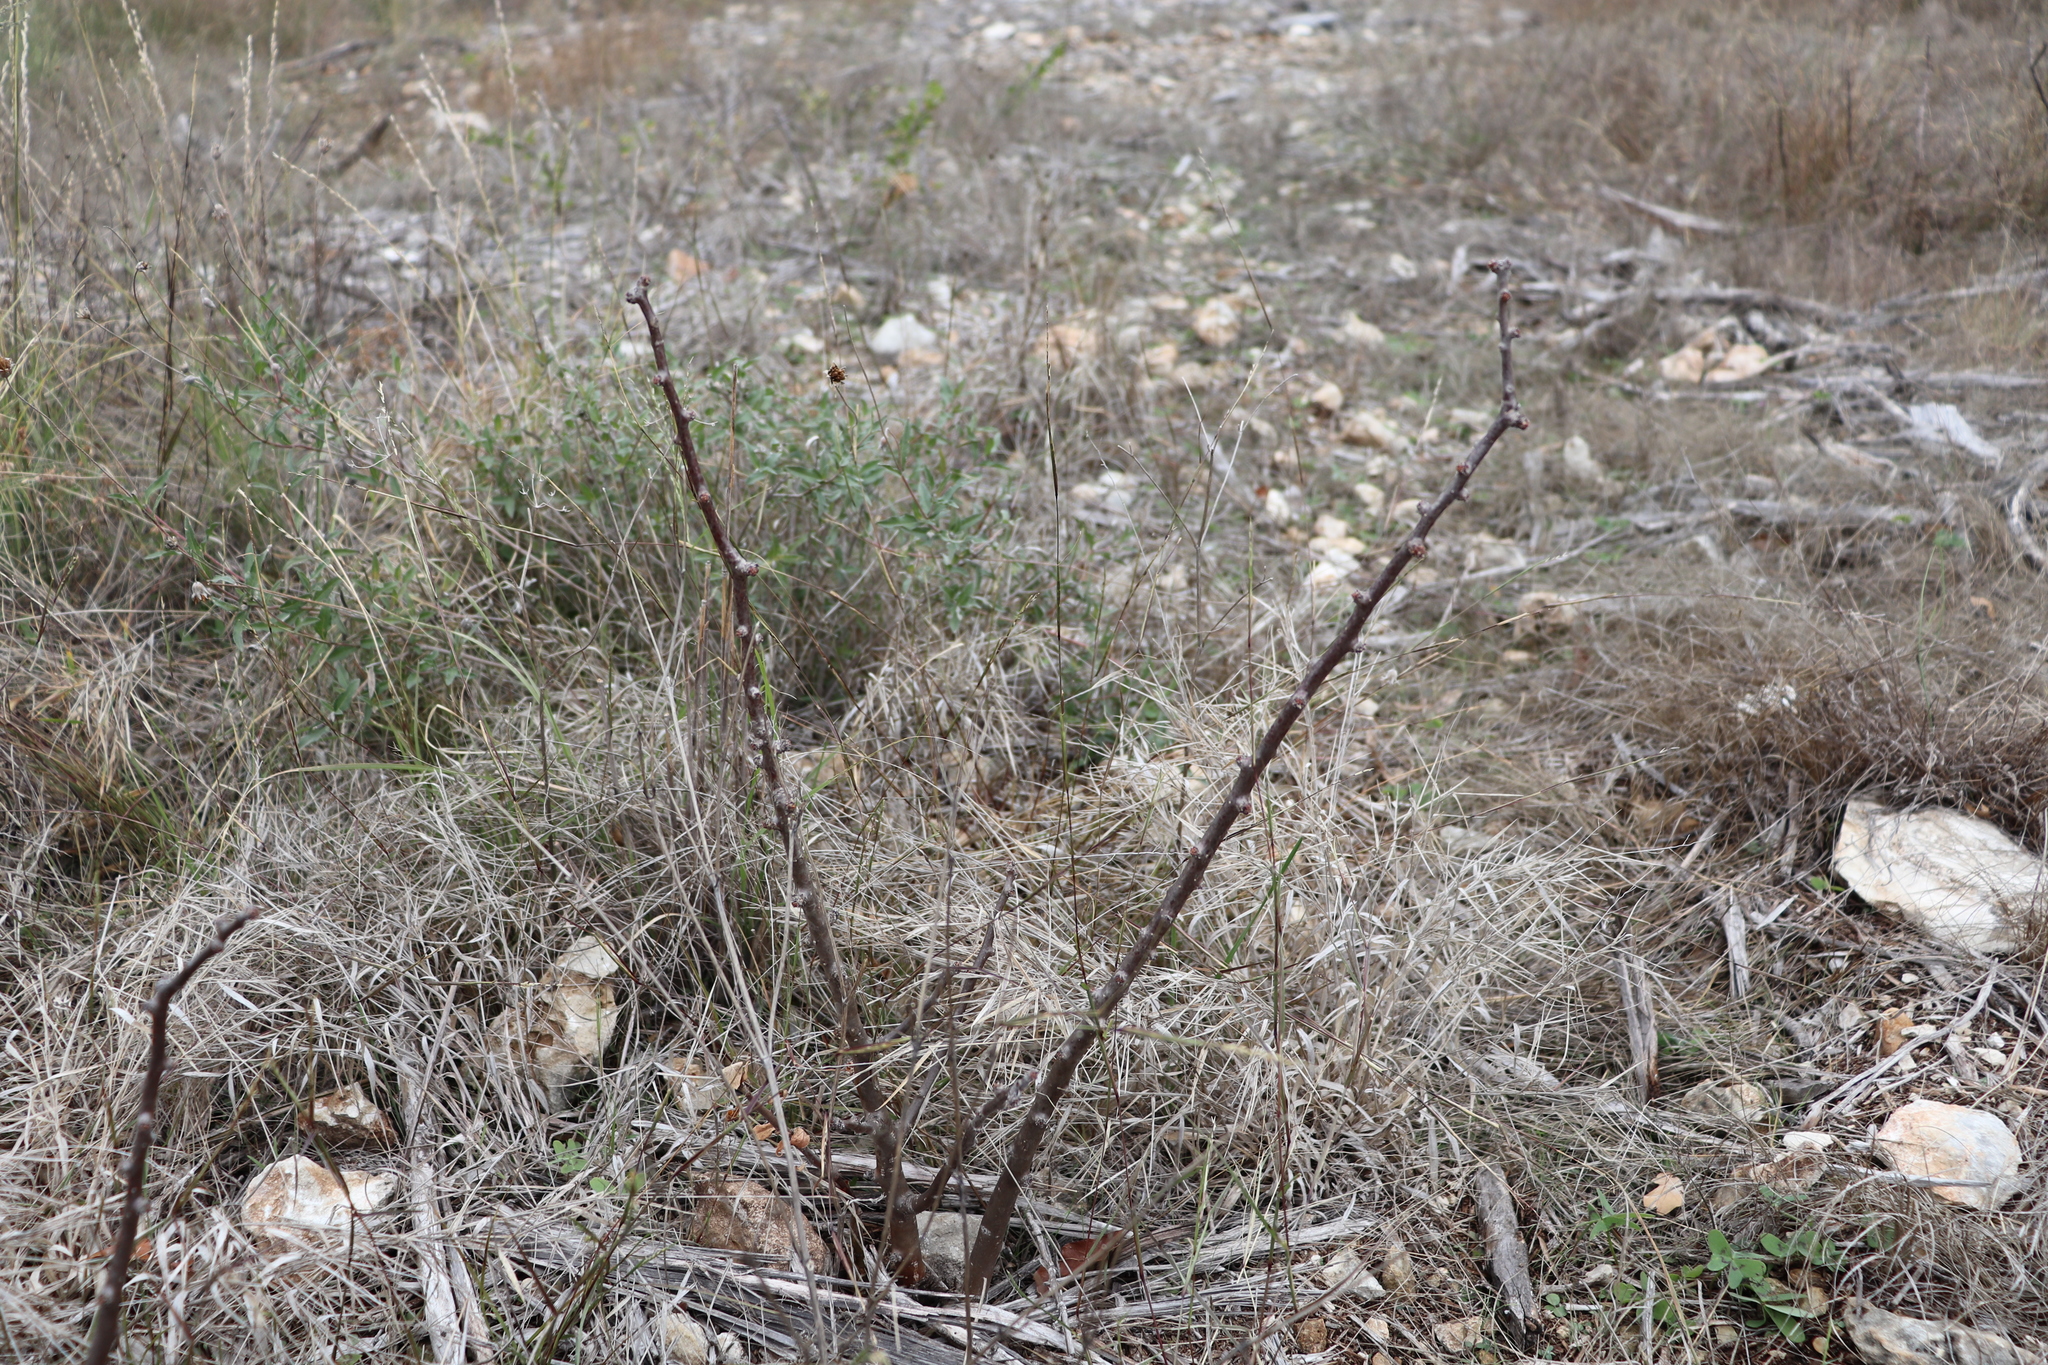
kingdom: Plantae
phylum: Tracheophyta
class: Magnoliopsida
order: Malpighiales
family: Euphorbiaceae
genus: Jatropha
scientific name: Jatropha dioica
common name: Leatherstem
